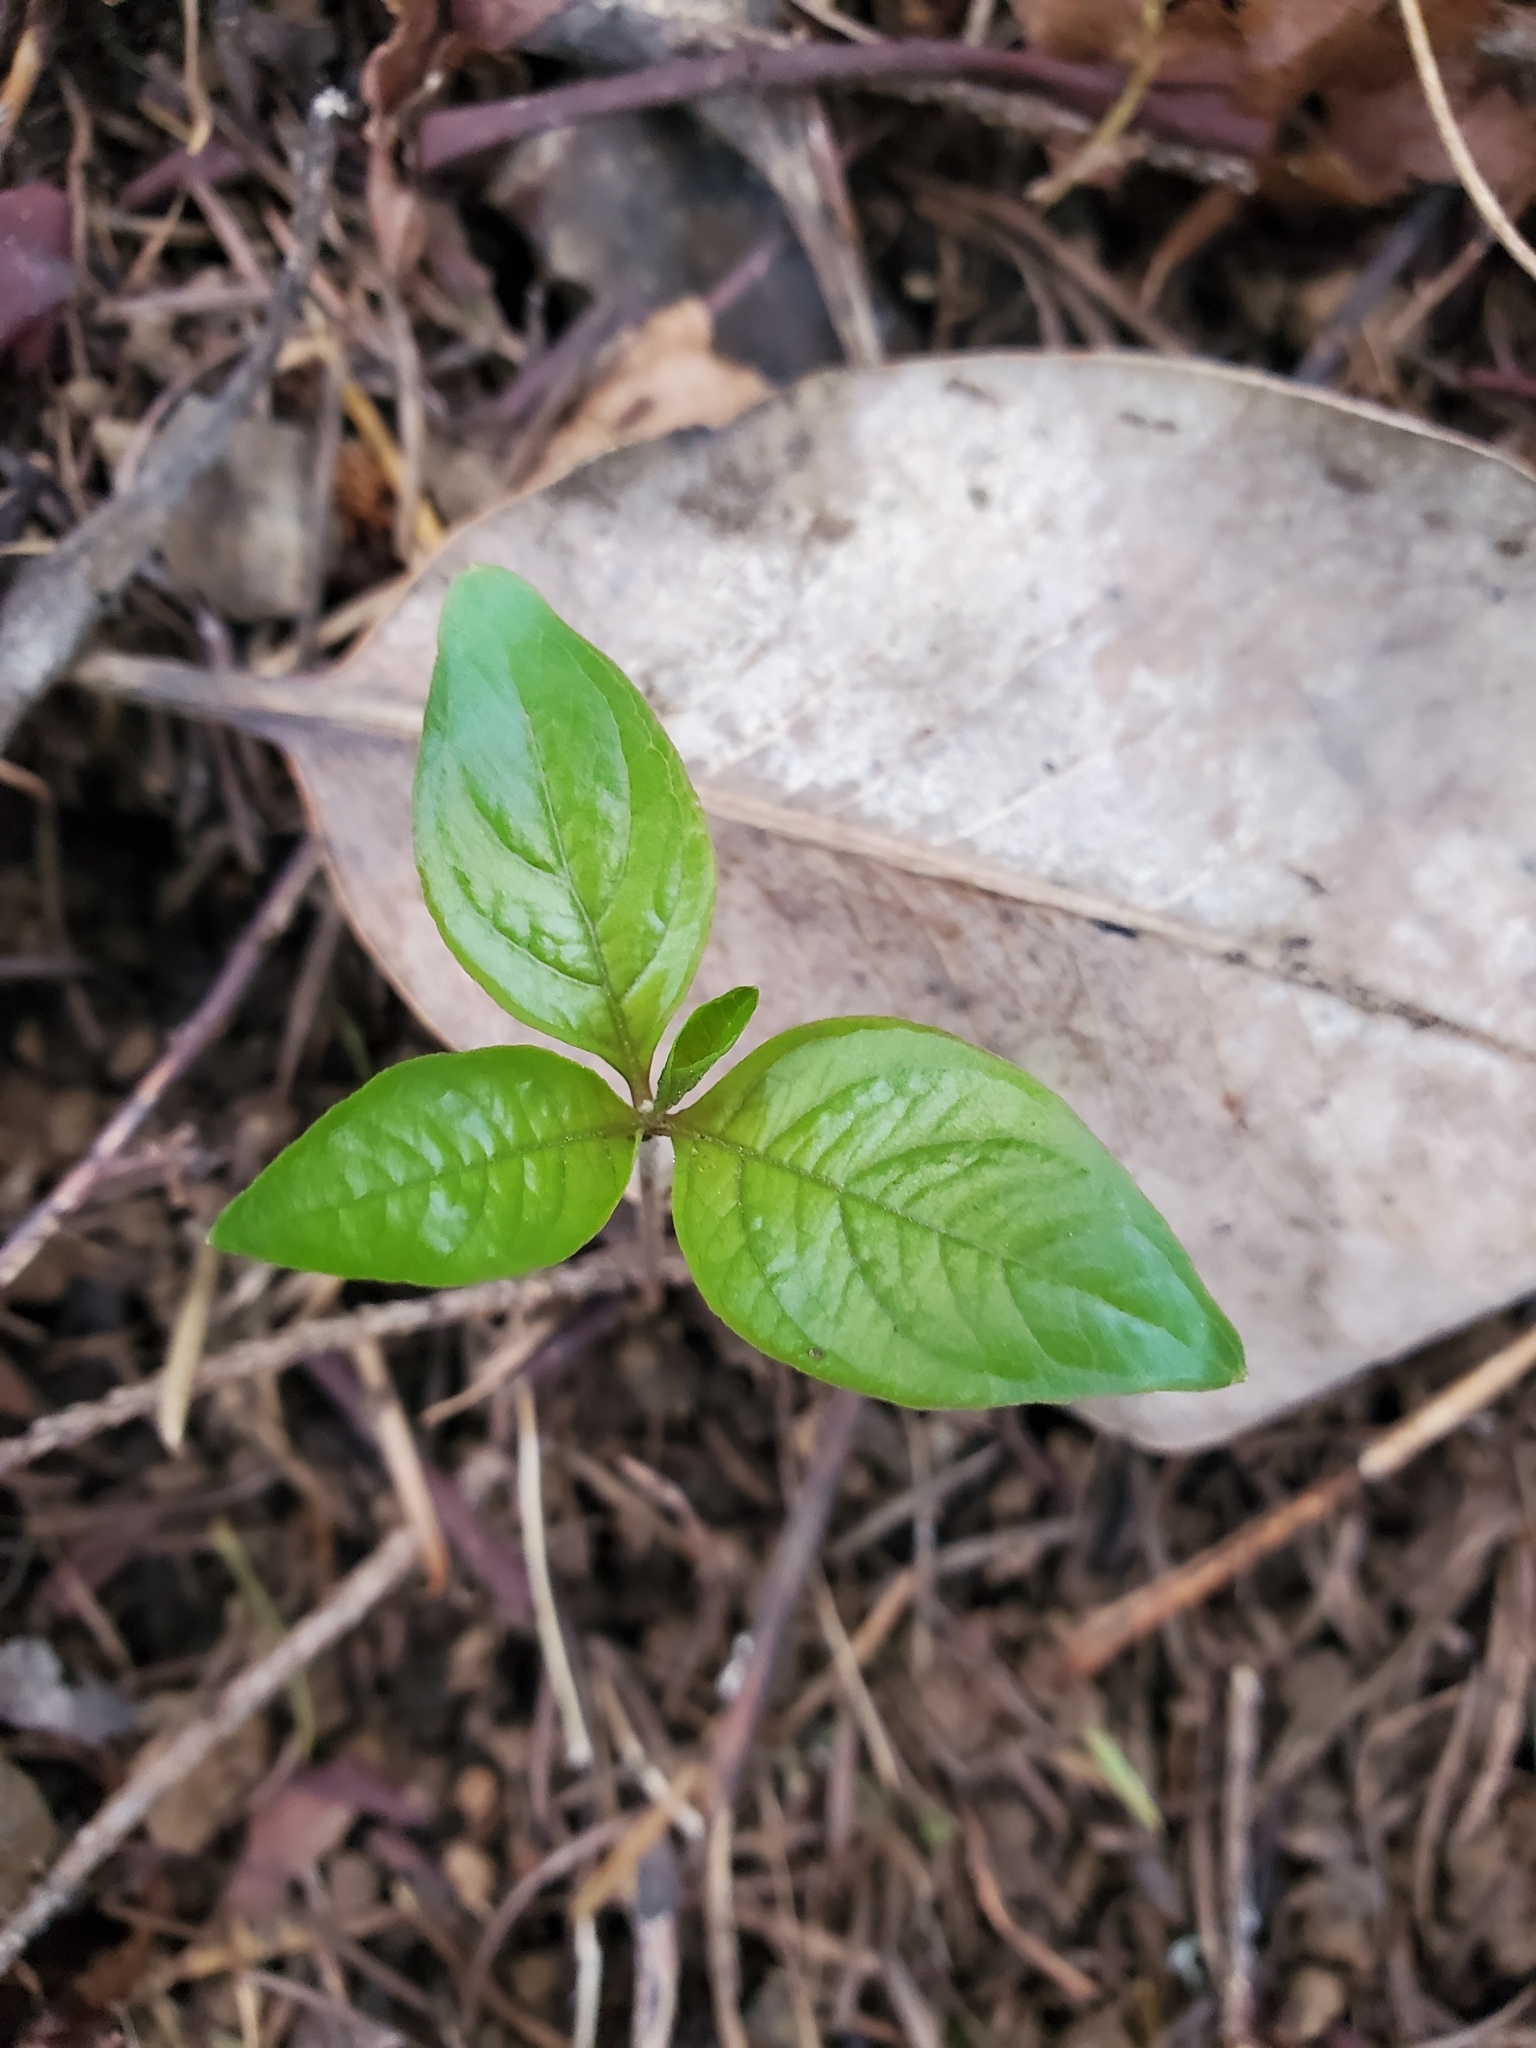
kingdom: Plantae
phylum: Tracheophyta
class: Magnoliopsida
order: Ericales
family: Primulaceae
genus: Lysimachia
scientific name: Lysimachia latifolia
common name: Pacific starflower
